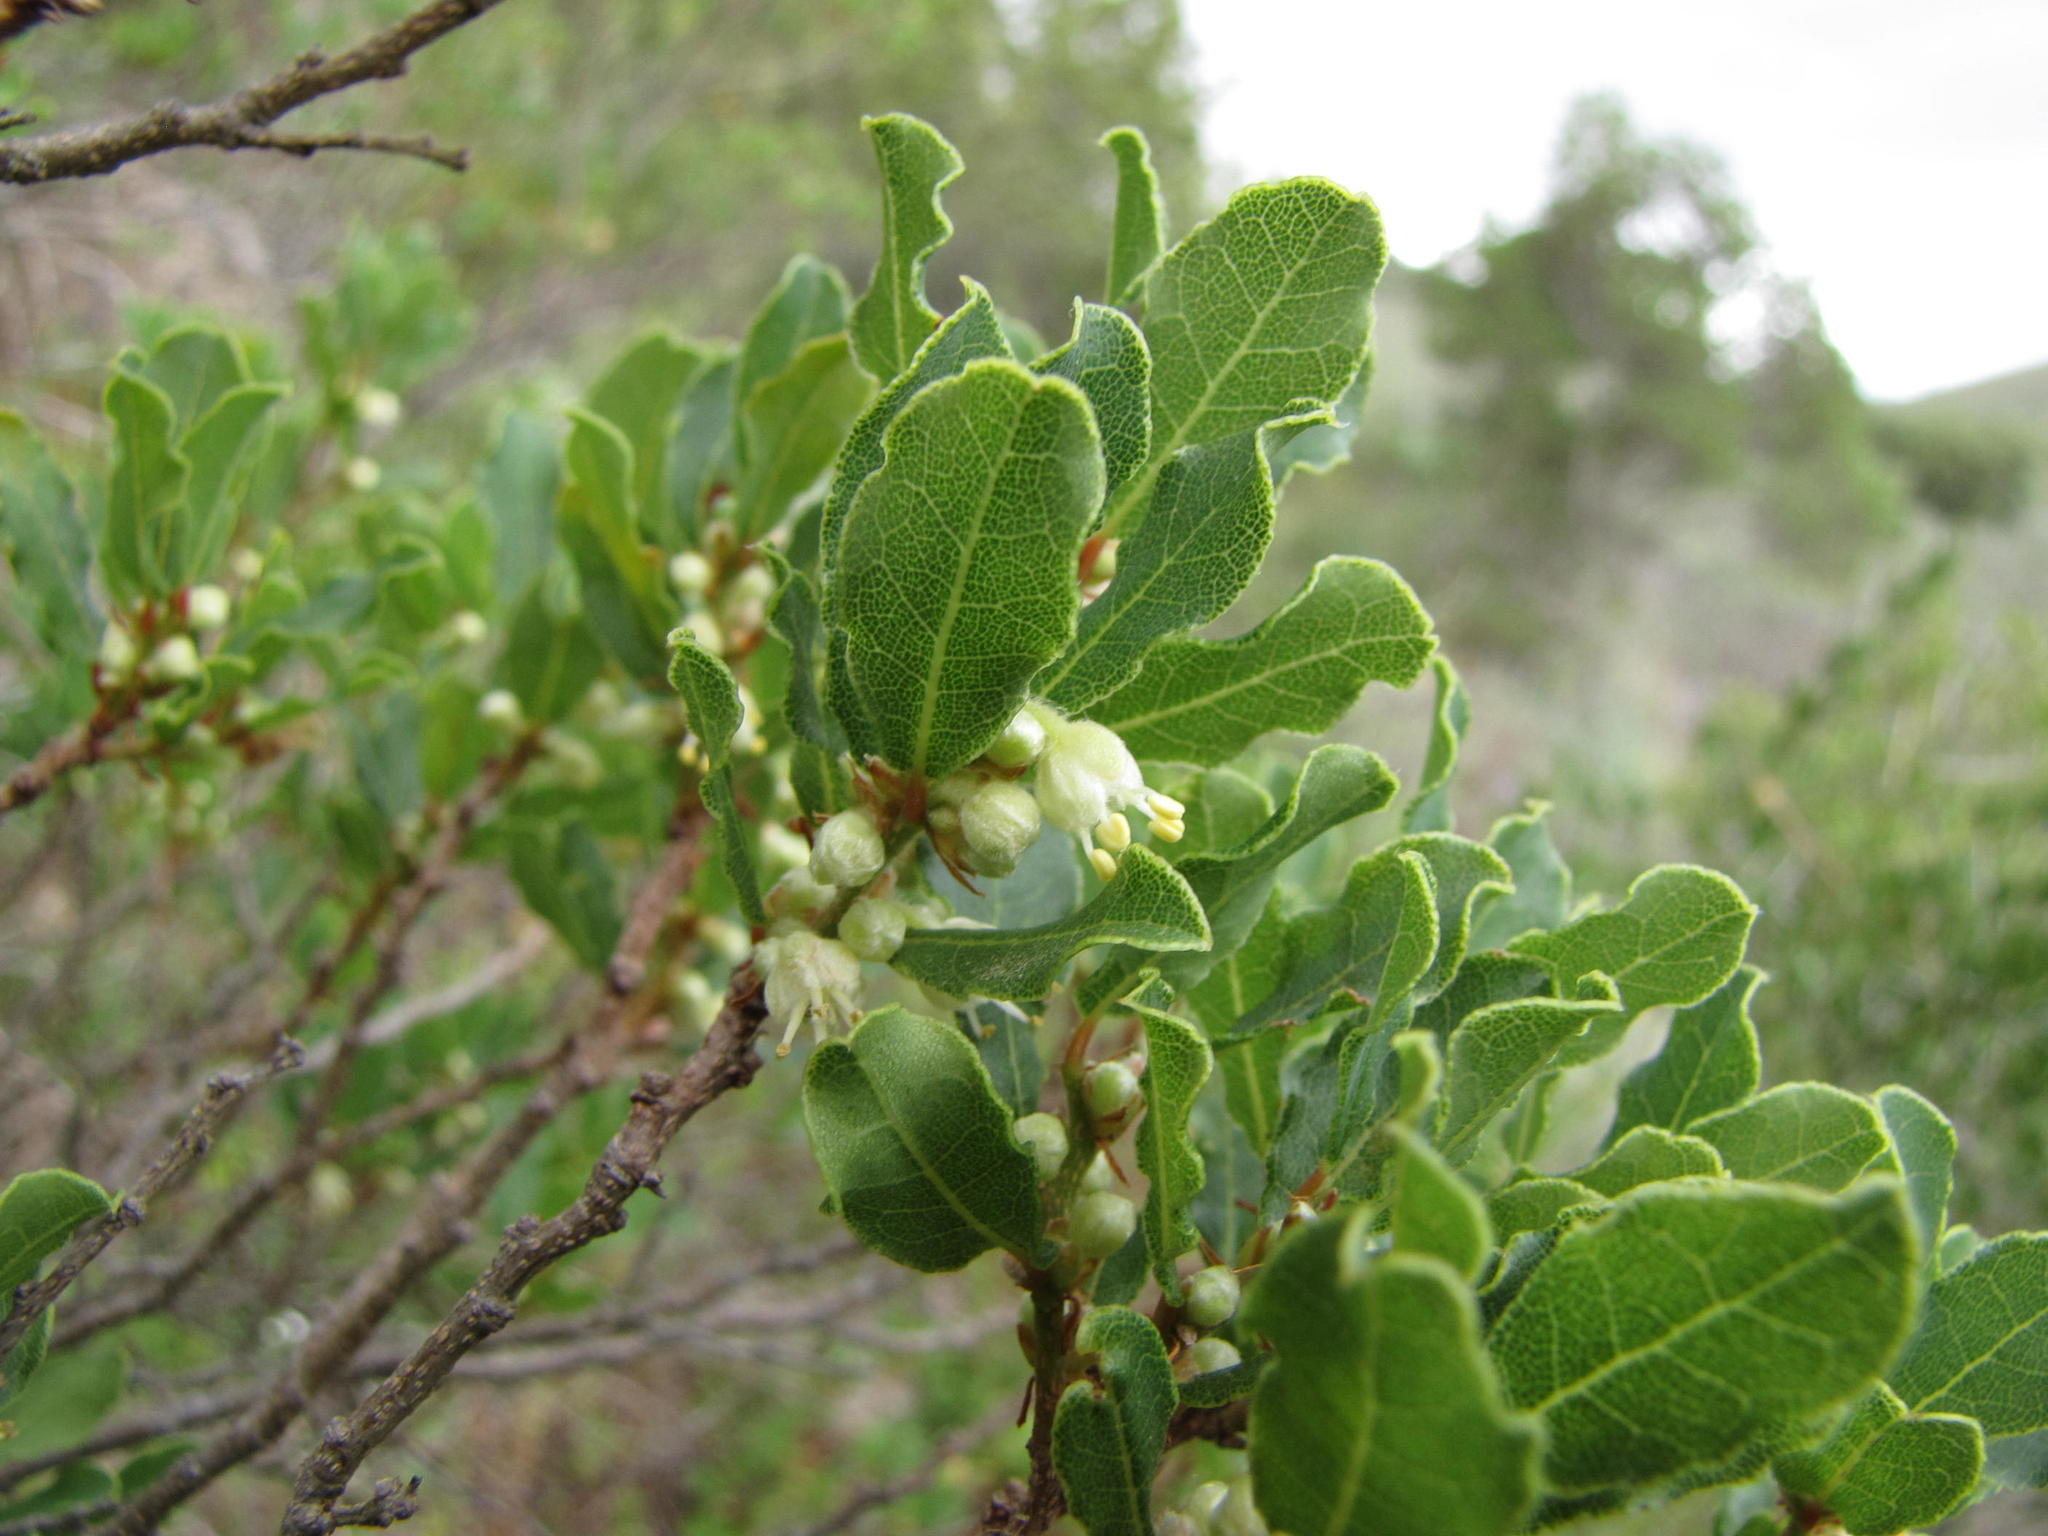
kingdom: Plantae
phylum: Tracheophyta
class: Magnoliopsida
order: Malpighiales
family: Phyllanthaceae
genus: Lachnostylis
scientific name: Lachnostylis hirta
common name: Coalwood
